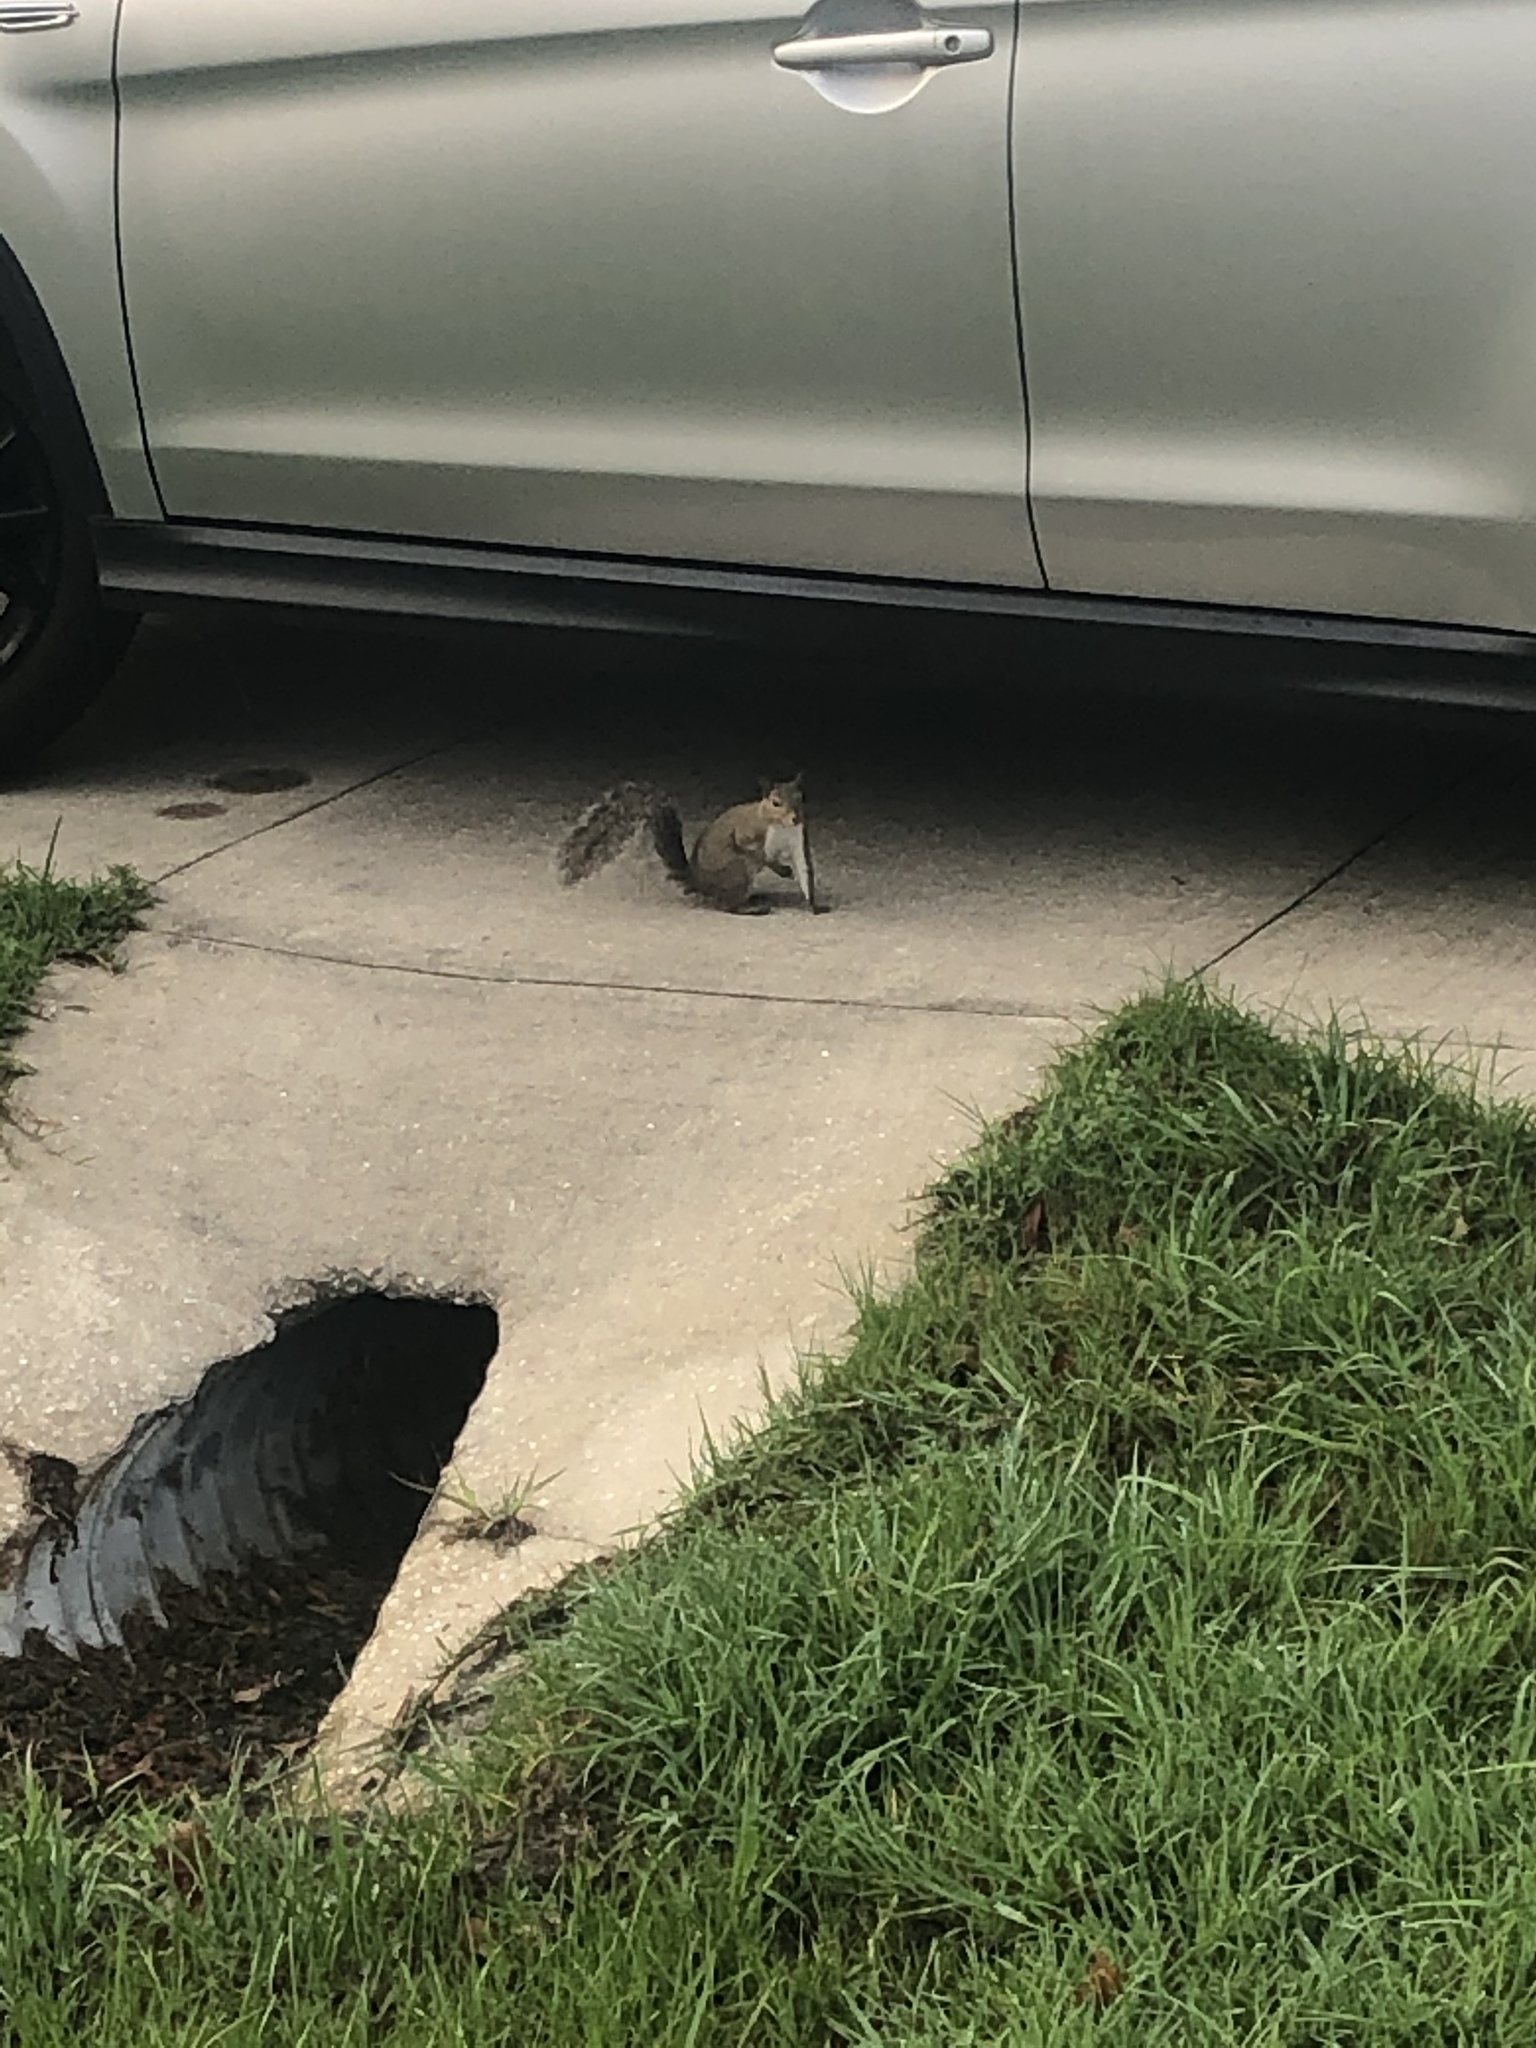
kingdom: Animalia
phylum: Chordata
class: Mammalia
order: Rodentia
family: Sciuridae
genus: Sciurus
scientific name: Sciurus carolinensis
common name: Eastern gray squirrel
